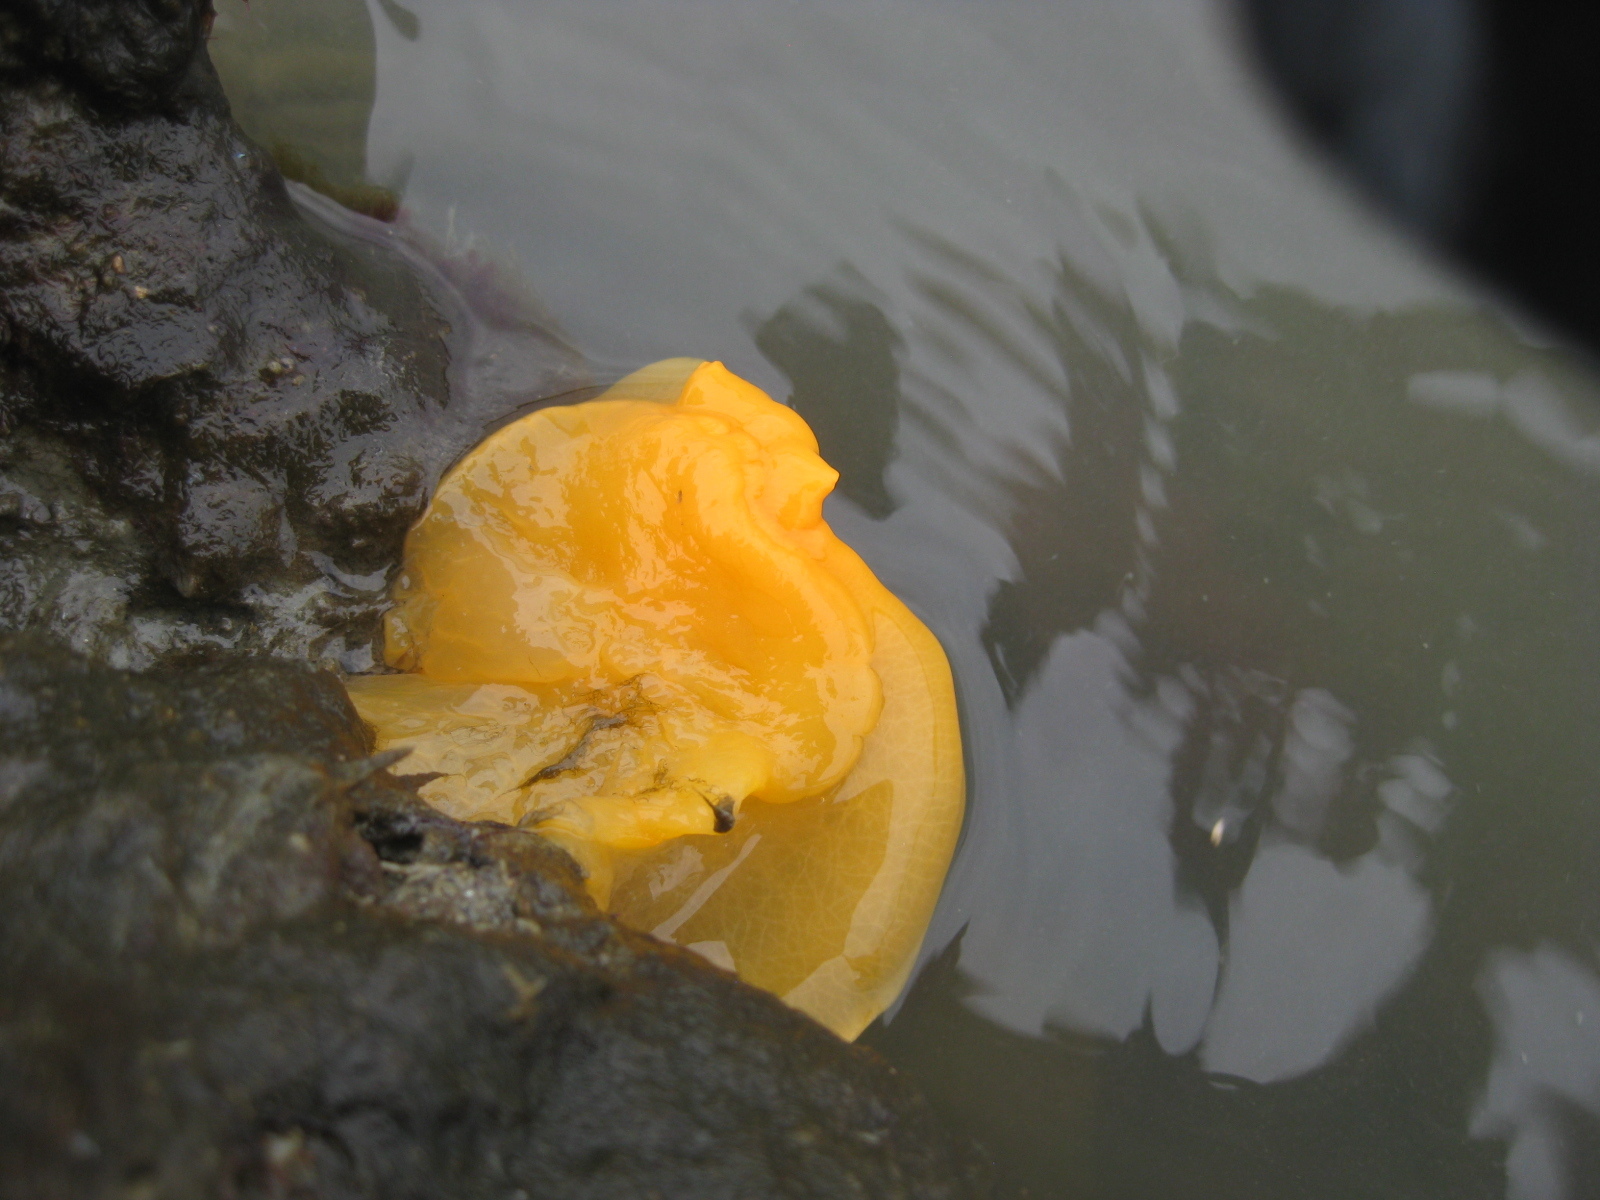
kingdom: Animalia
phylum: Mollusca
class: Gastropoda
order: Nudibranchia
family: Dendrodorididae
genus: Dendrodoris
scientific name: Dendrodoris citrina
